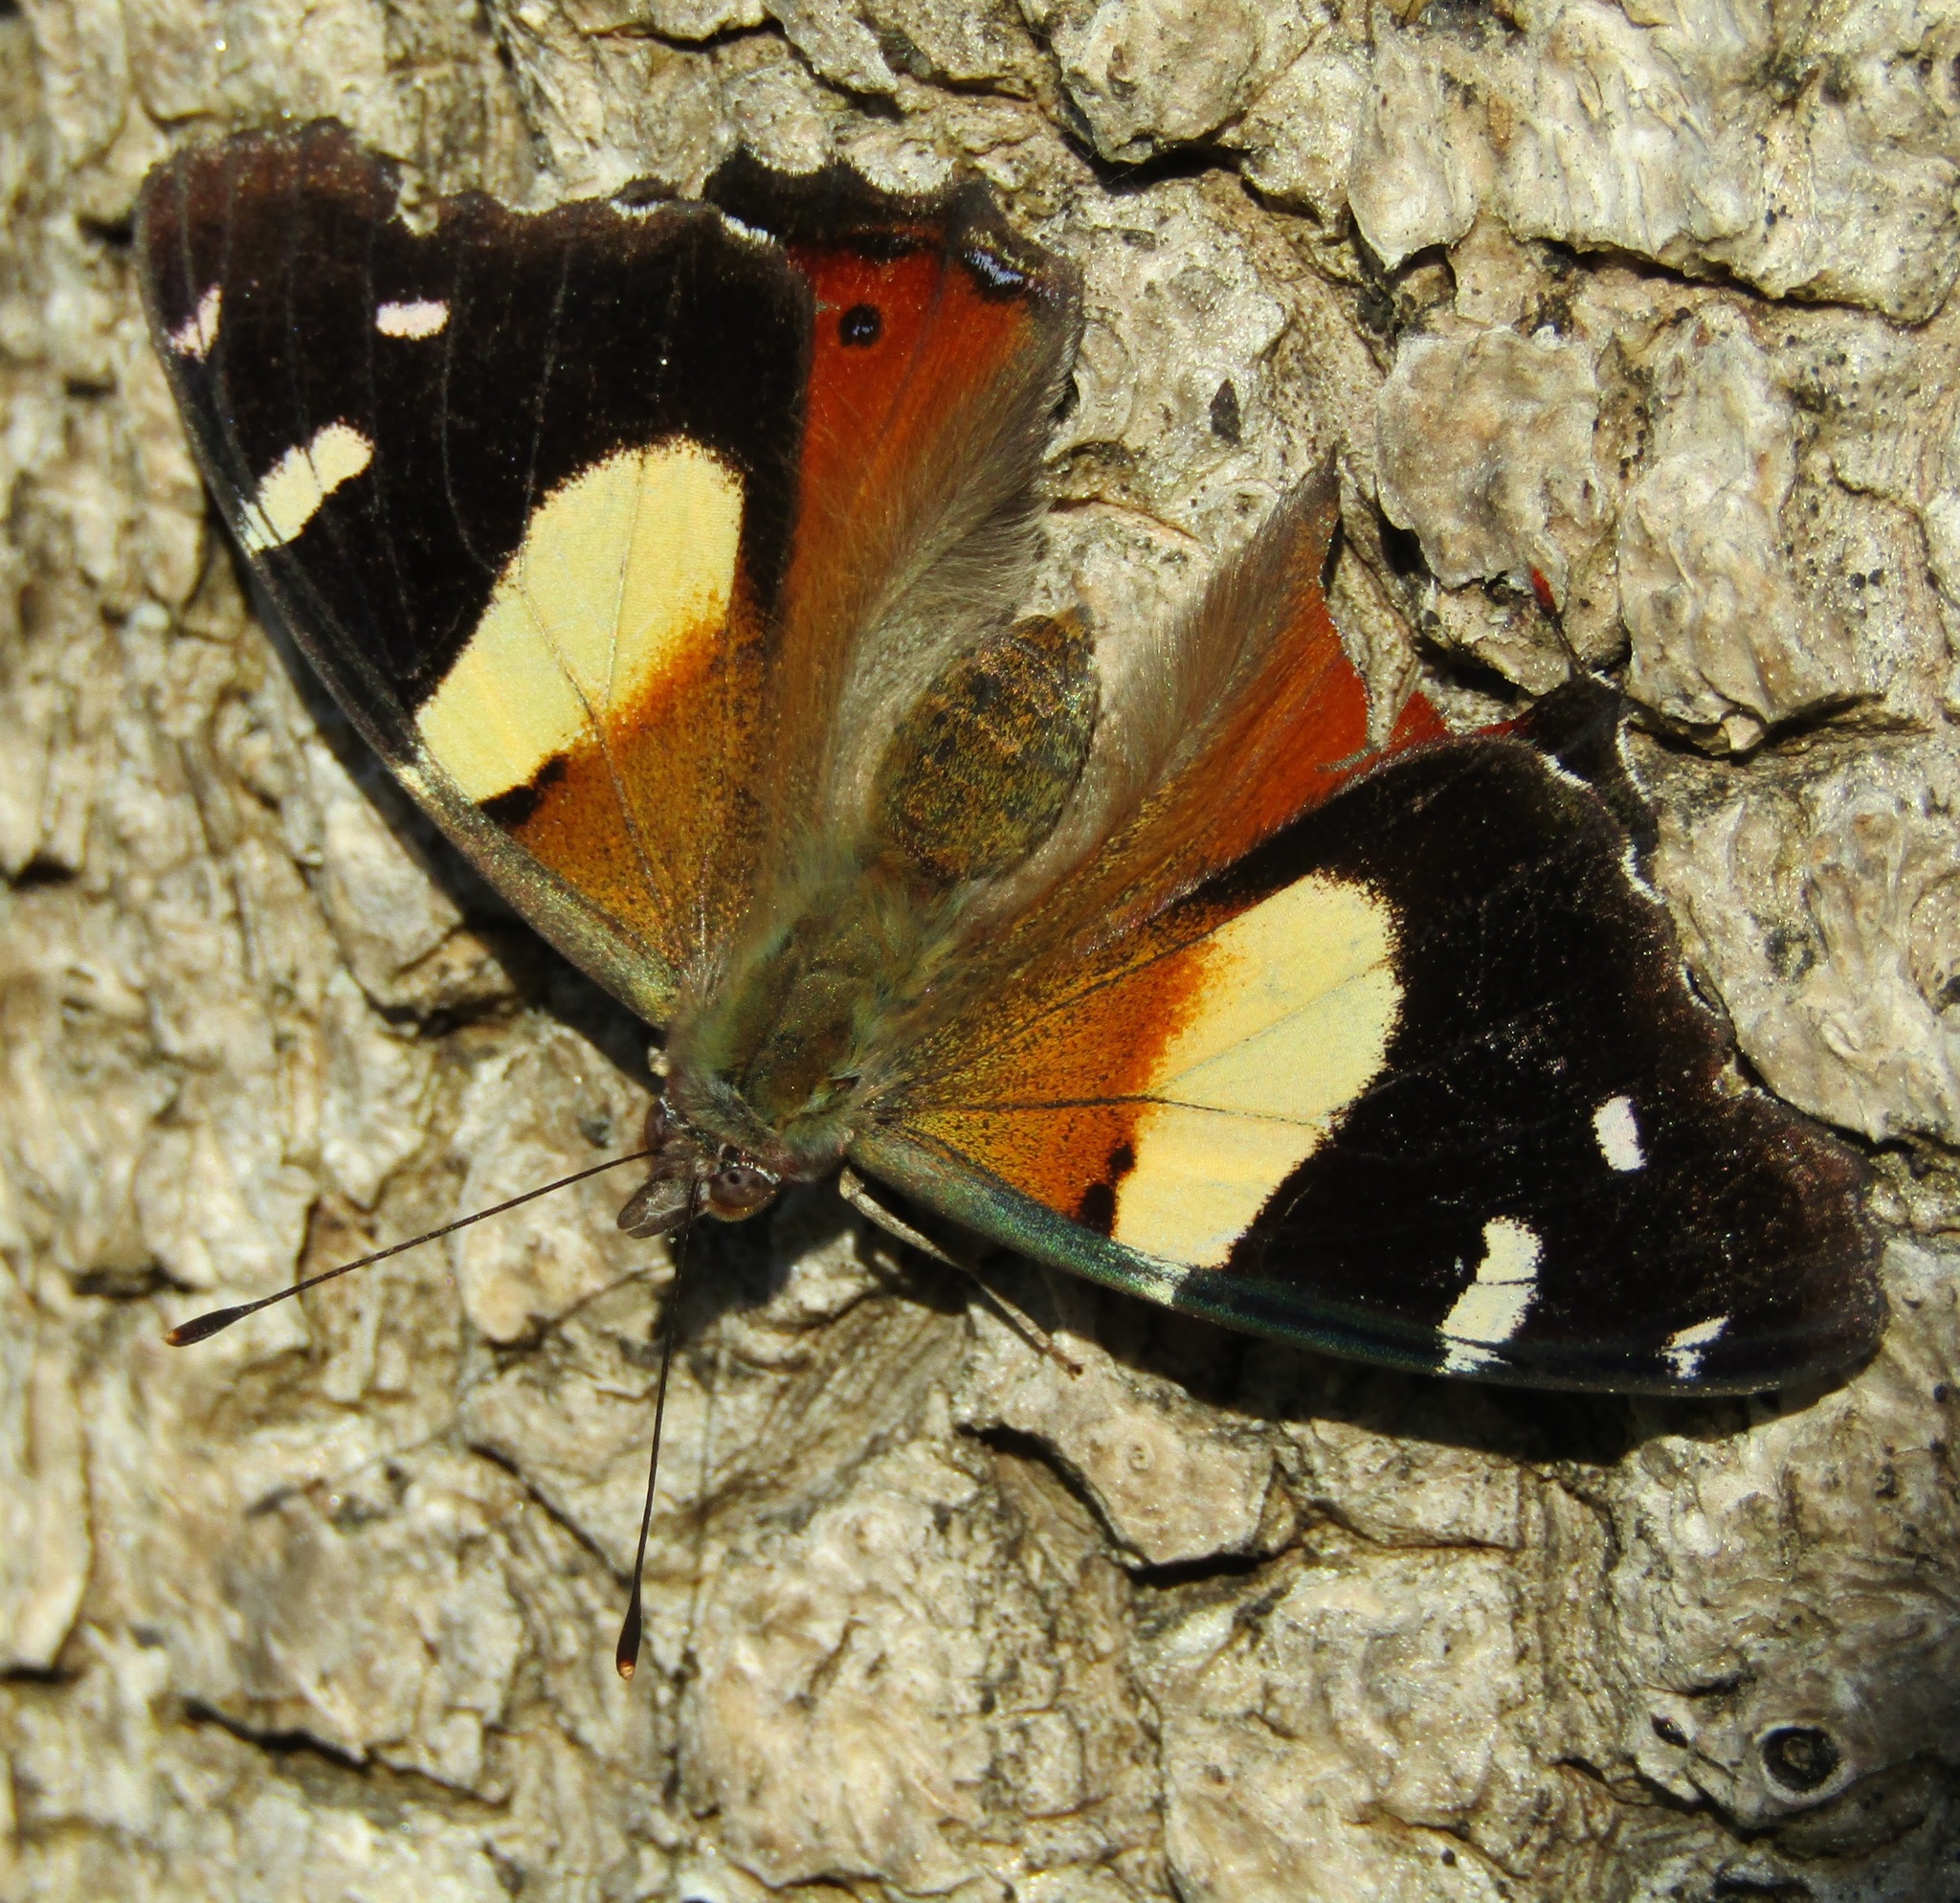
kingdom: Animalia
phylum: Arthropoda
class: Insecta
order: Lepidoptera
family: Nymphalidae
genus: Vanessa
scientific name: Vanessa itea
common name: Yellow admiral
